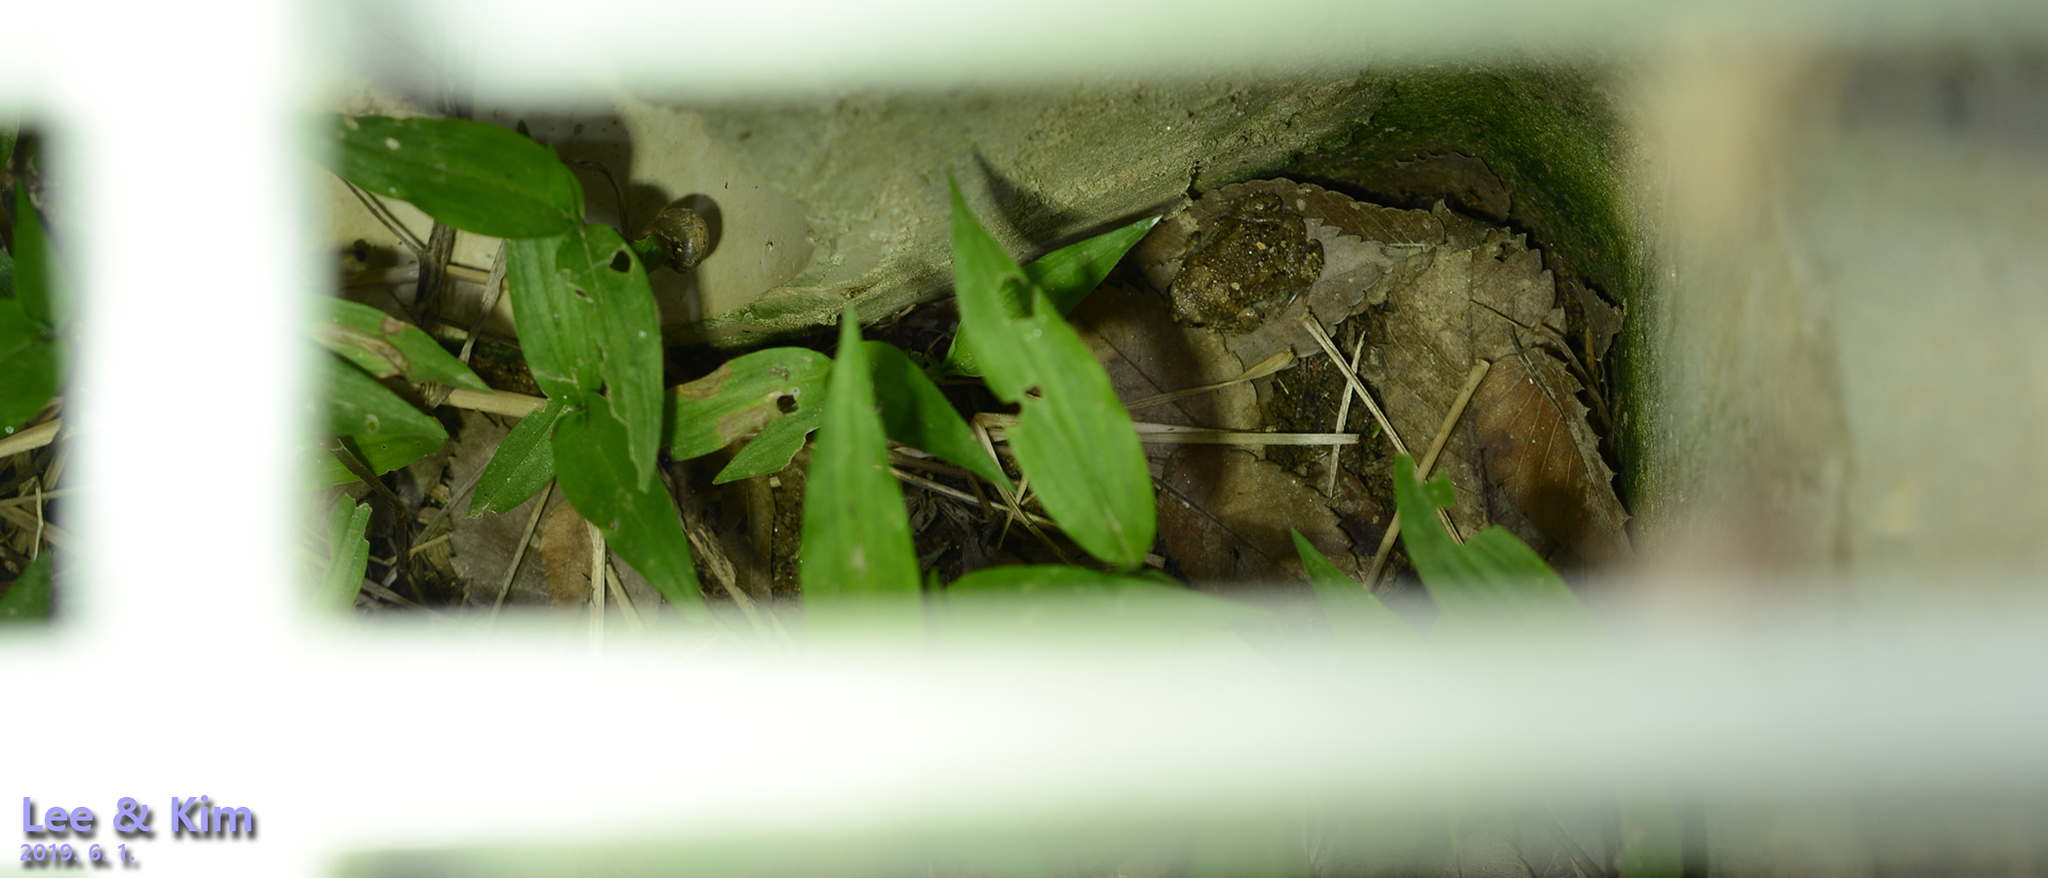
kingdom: Animalia
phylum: Chordata
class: Amphibia
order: Anura
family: Microhylidae
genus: Kaloula
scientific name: Kaloula borealis
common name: Boreal digging frog
